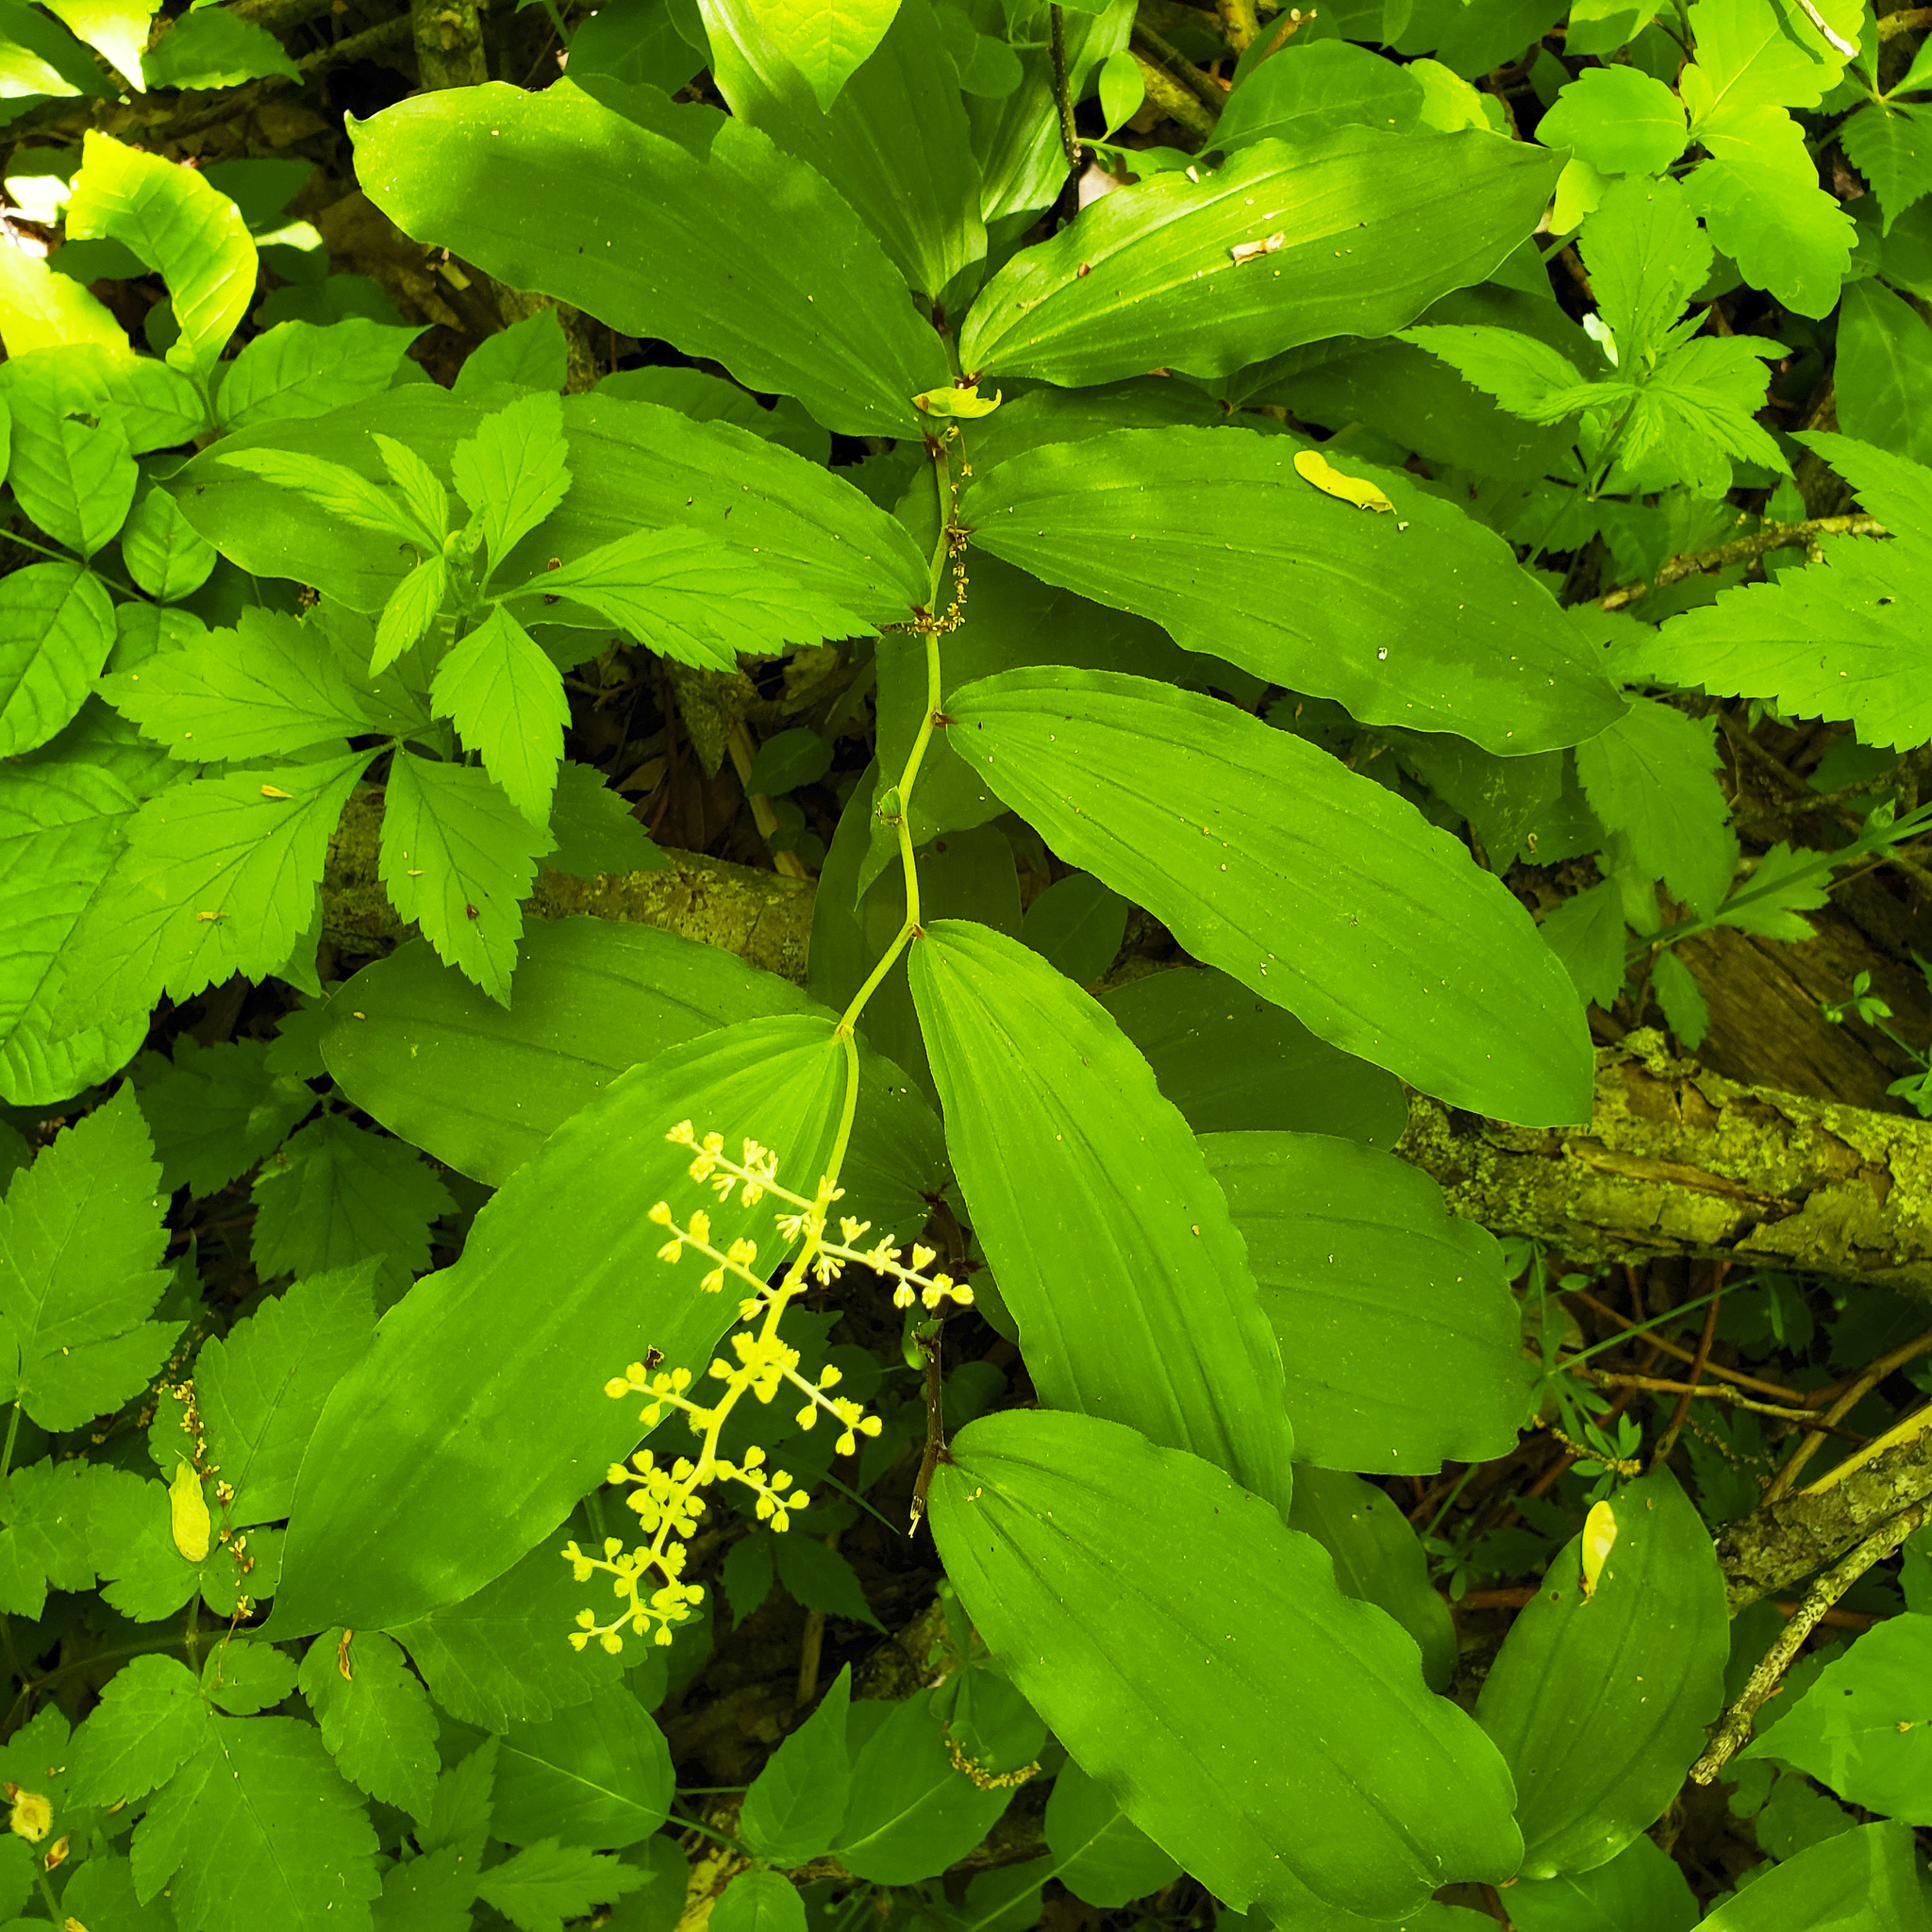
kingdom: Plantae
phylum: Tracheophyta
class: Liliopsida
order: Asparagales
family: Asparagaceae
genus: Maianthemum
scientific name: Maianthemum racemosum
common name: False spikenard
